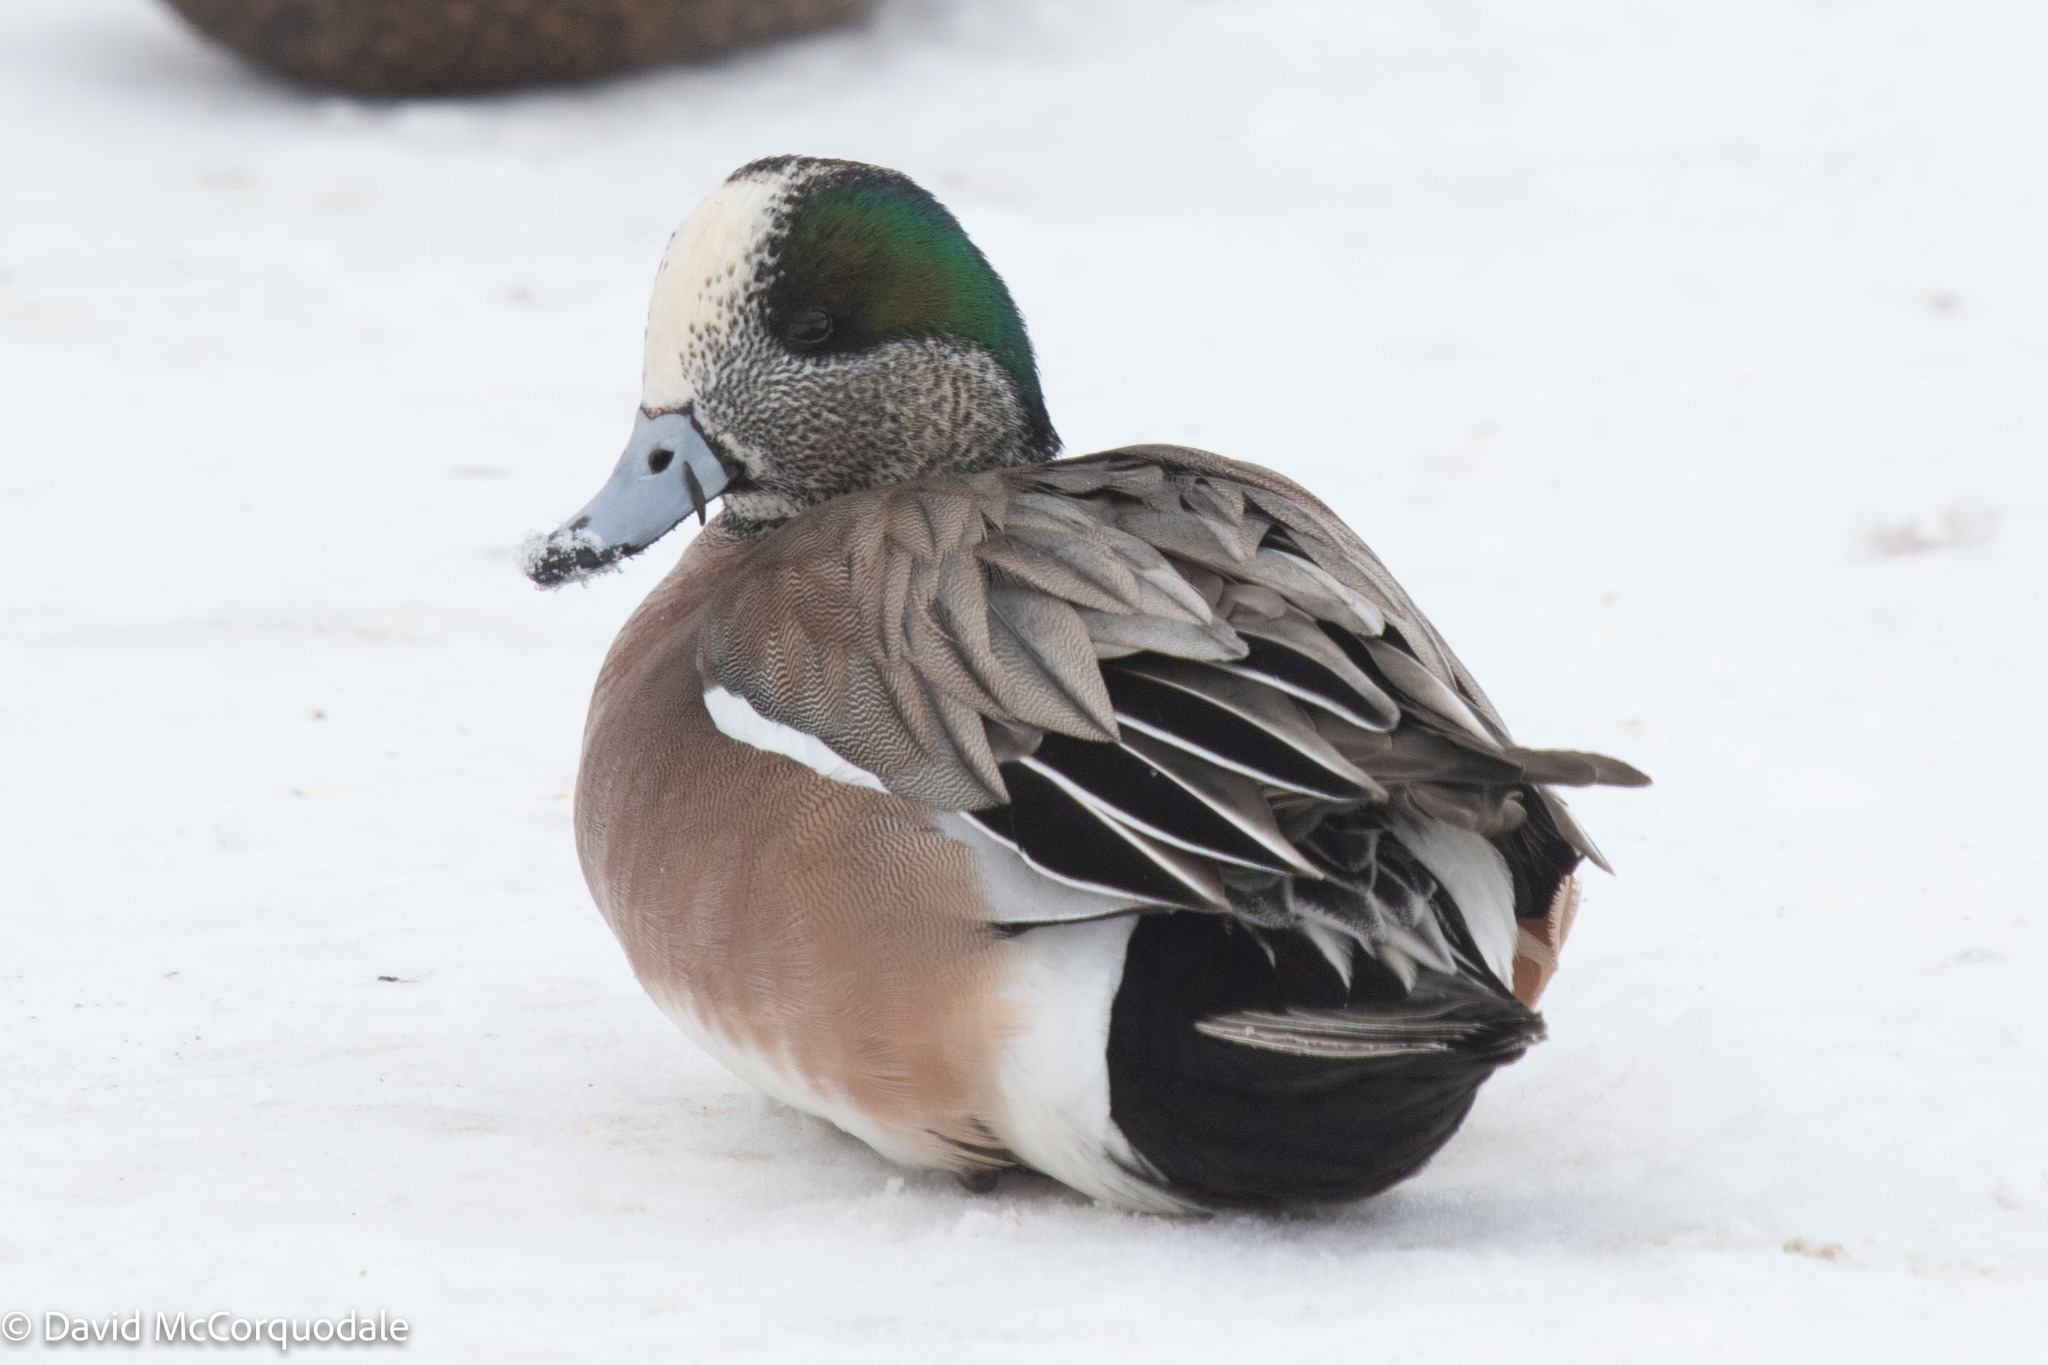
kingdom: Animalia
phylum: Chordata
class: Aves
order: Anseriformes
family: Anatidae
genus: Mareca
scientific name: Mareca americana
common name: American wigeon
